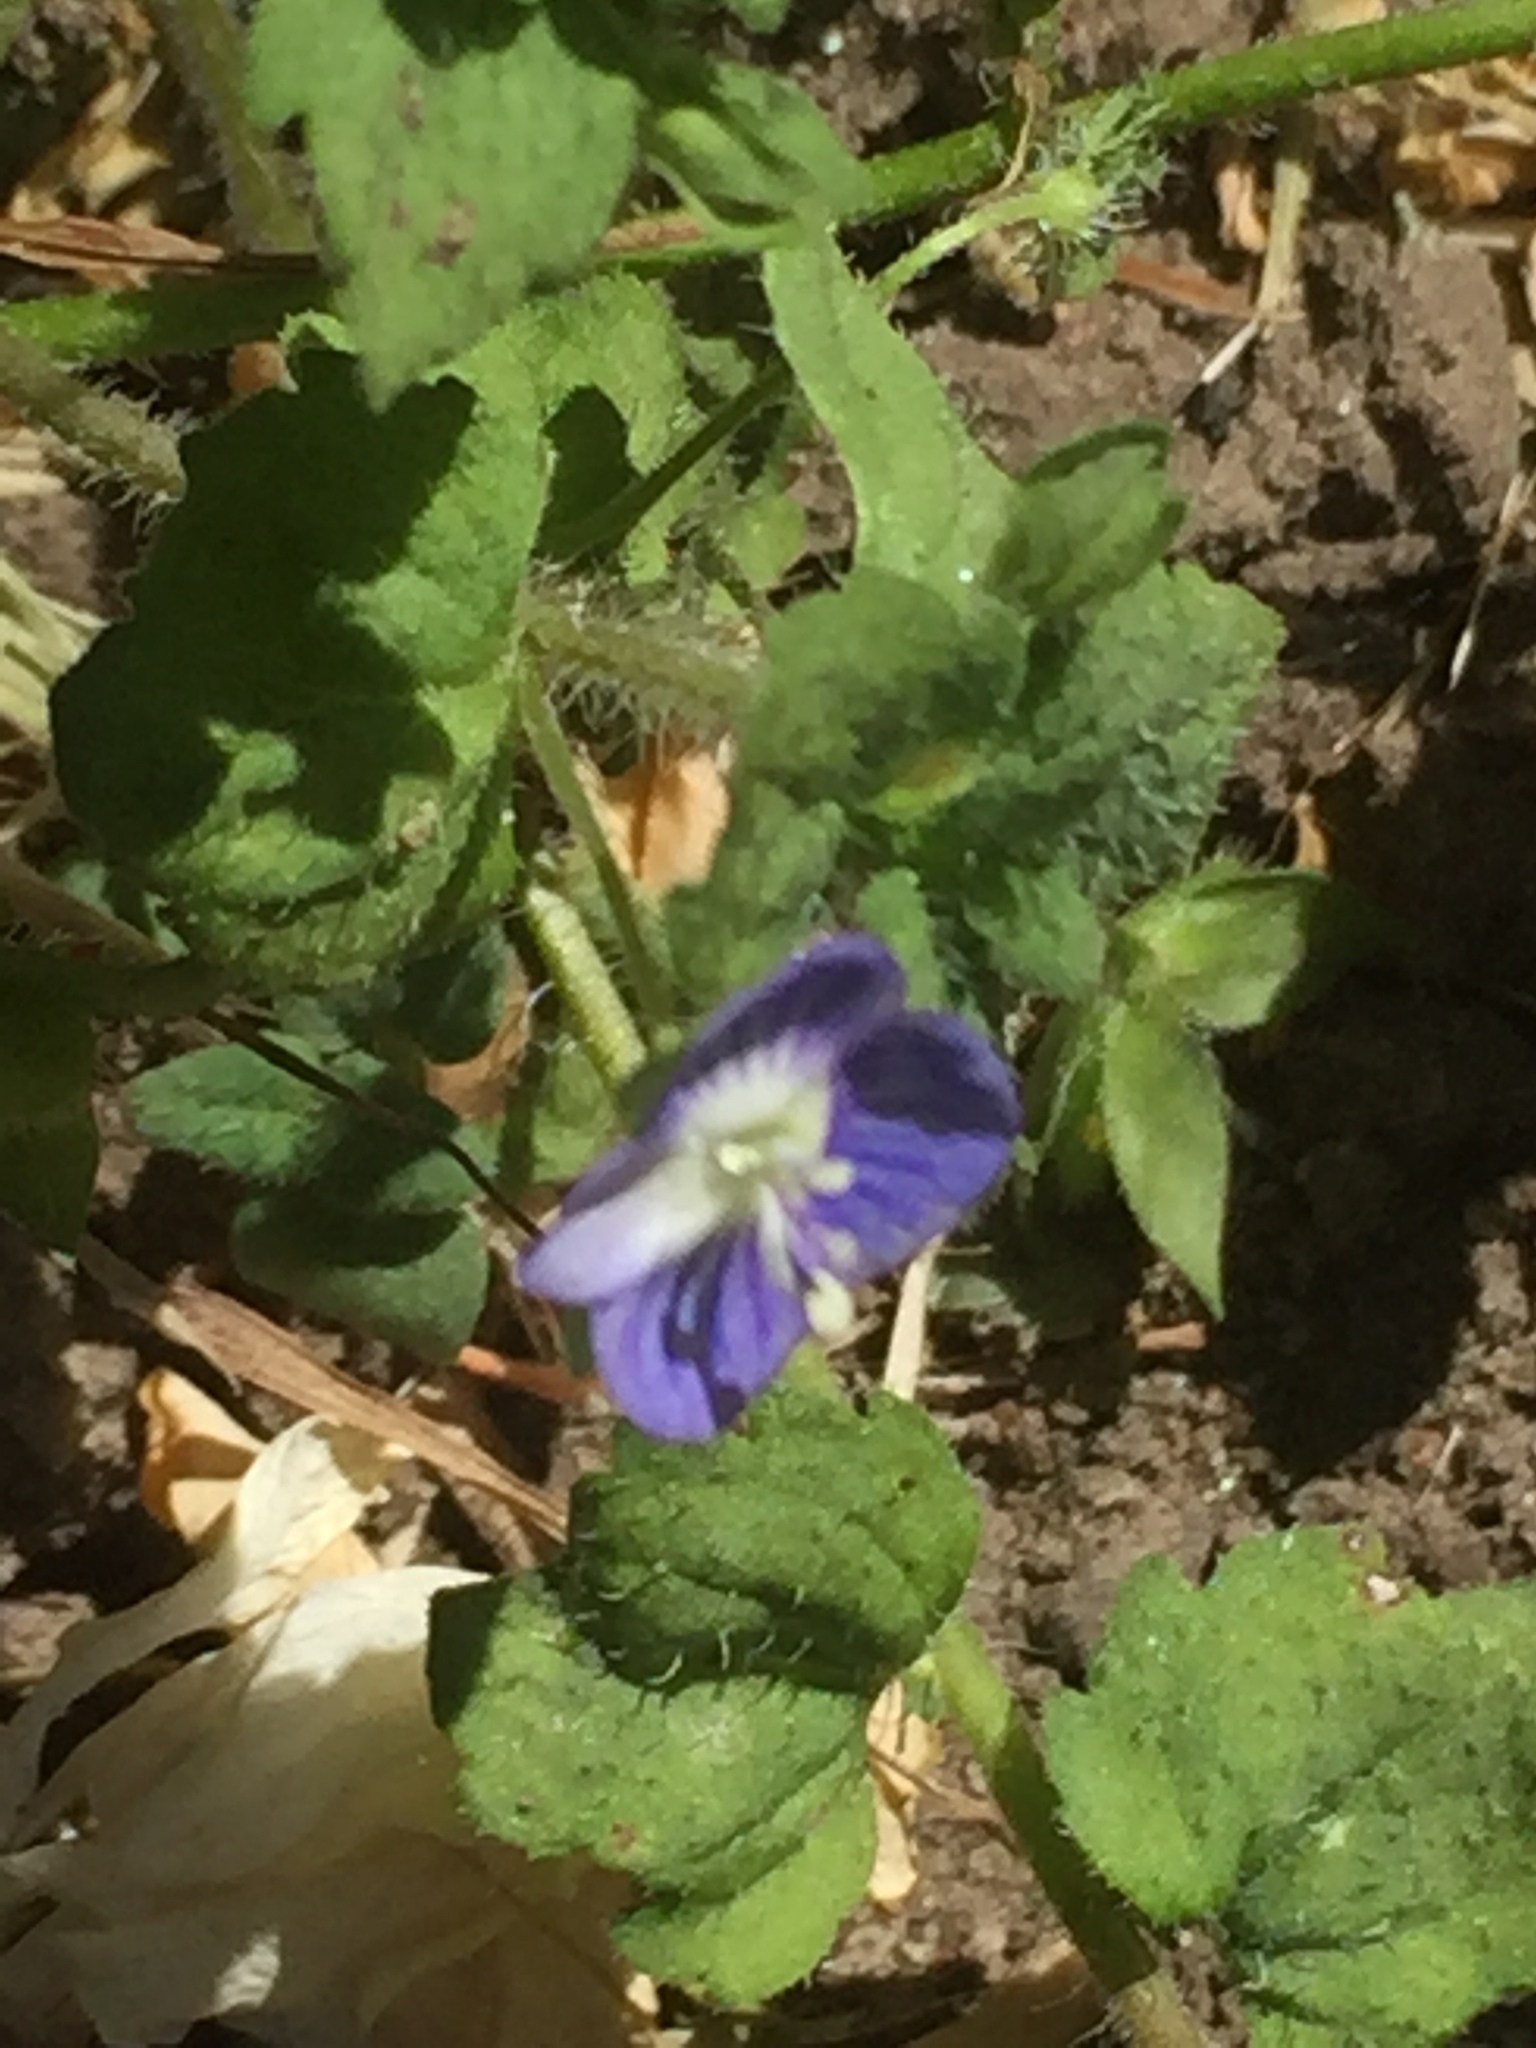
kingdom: Plantae
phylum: Tracheophyta
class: Magnoliopsida
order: Lamiales
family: Plantaginaceae
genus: Veronica
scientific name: Veronica persica
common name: Common field-speedwell
